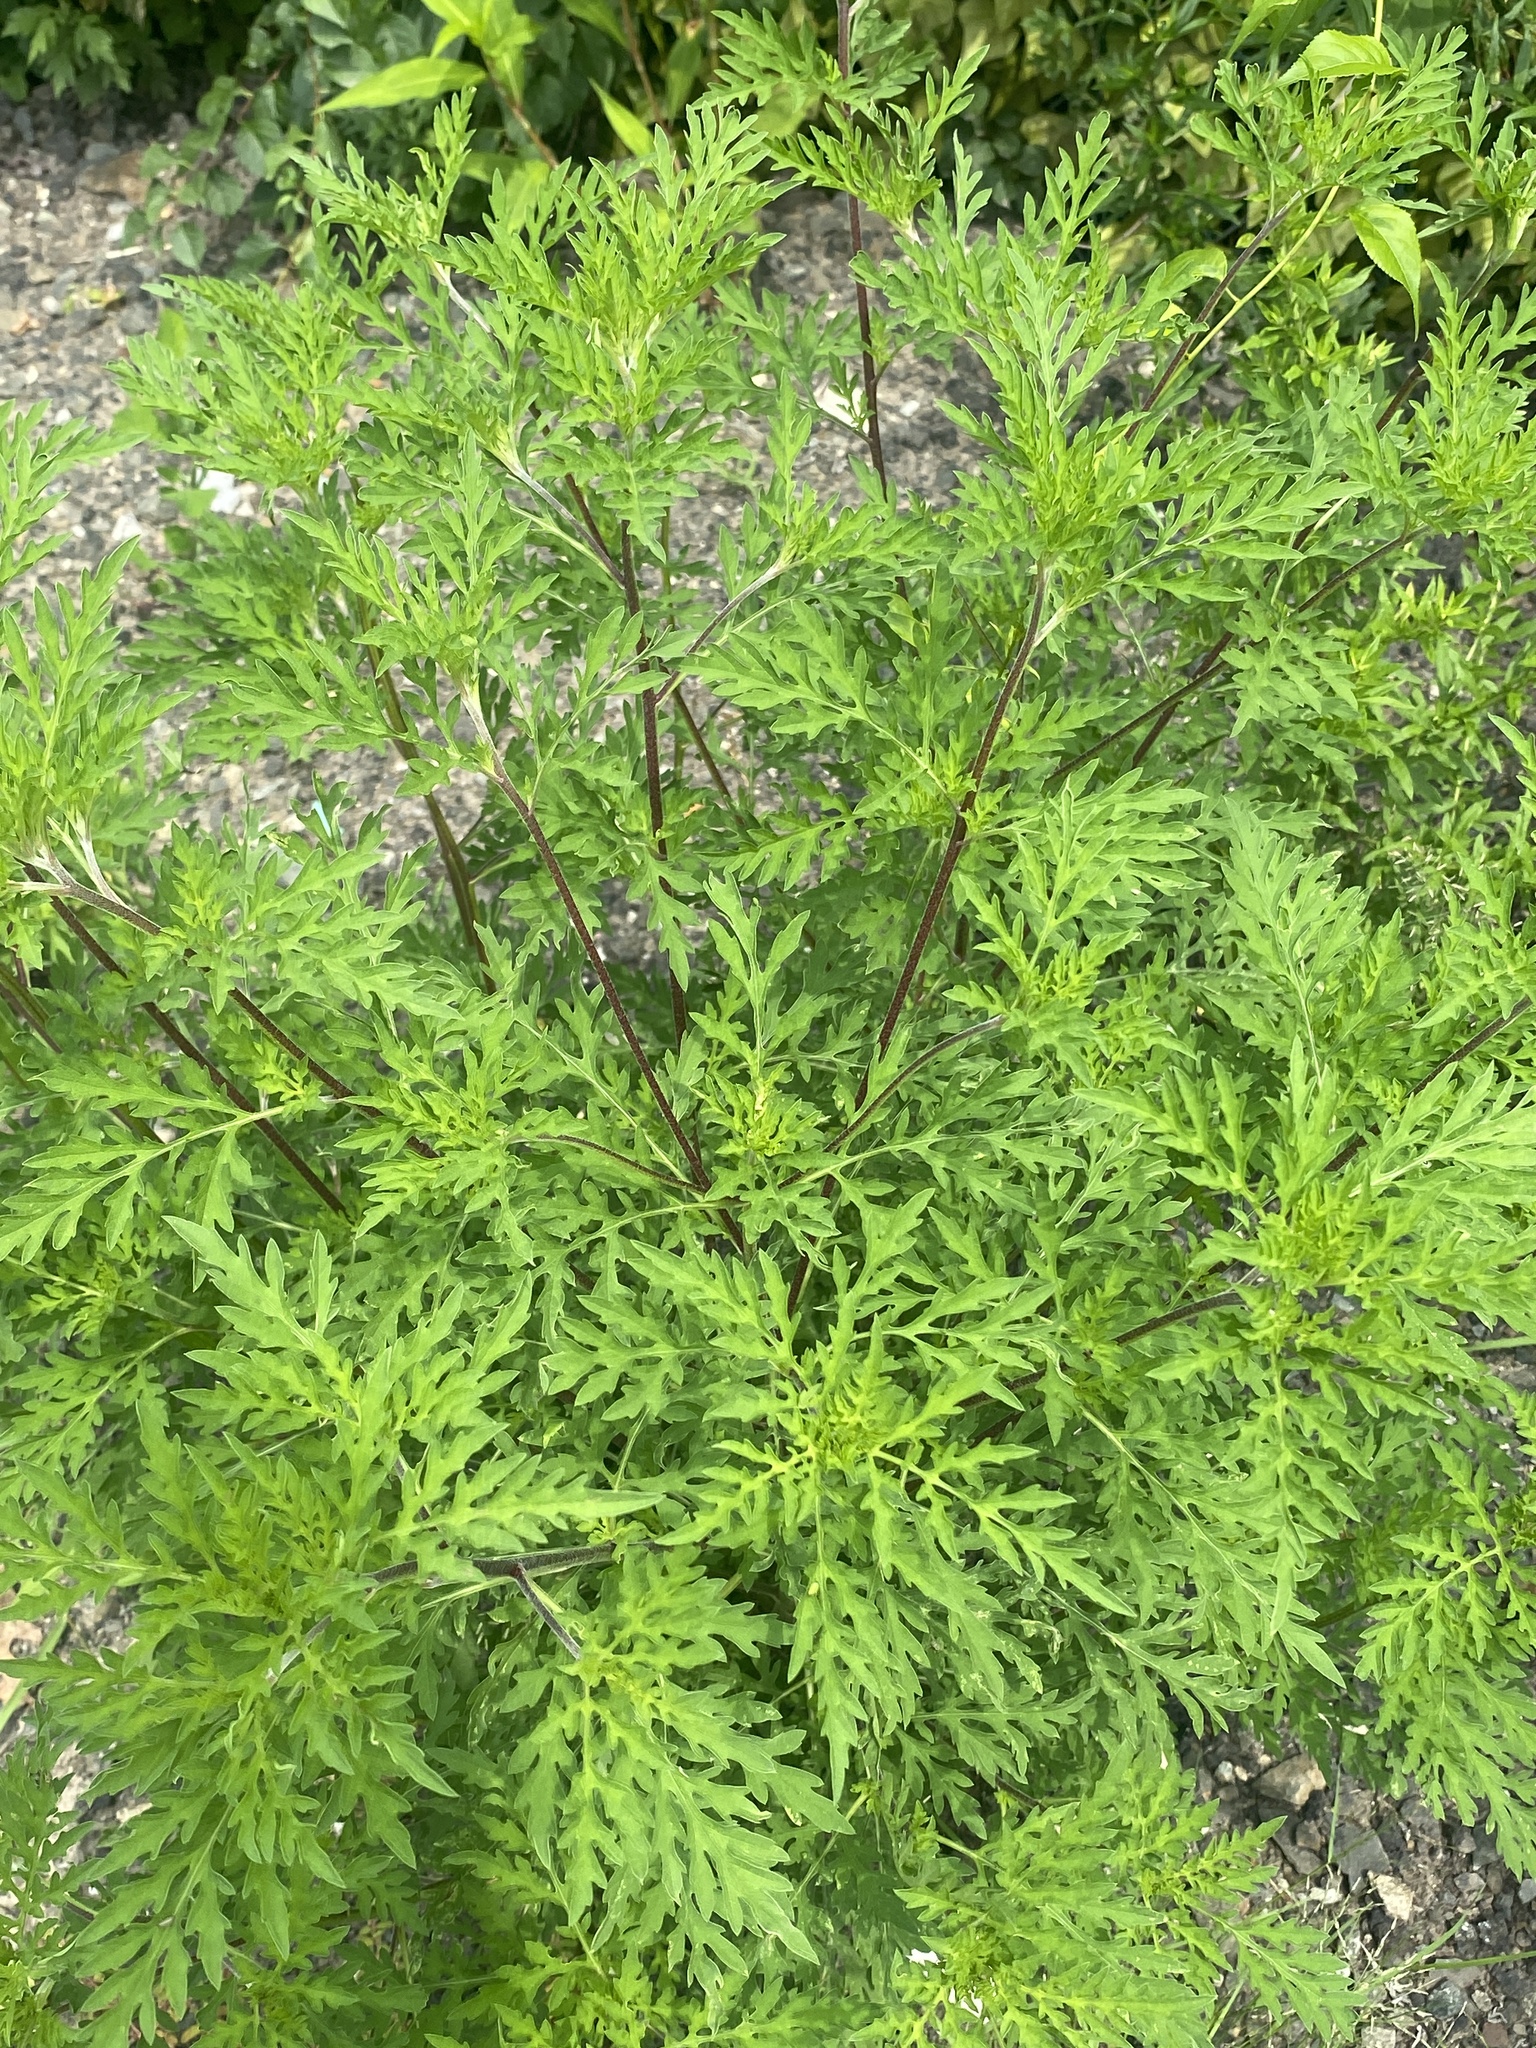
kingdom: Plantae
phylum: Tracheophyta
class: Magnoliopsida
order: Asterales
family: Asteraceae
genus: Ambrosia
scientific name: Ambrosia artemisiifolia
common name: Annual ragweed
